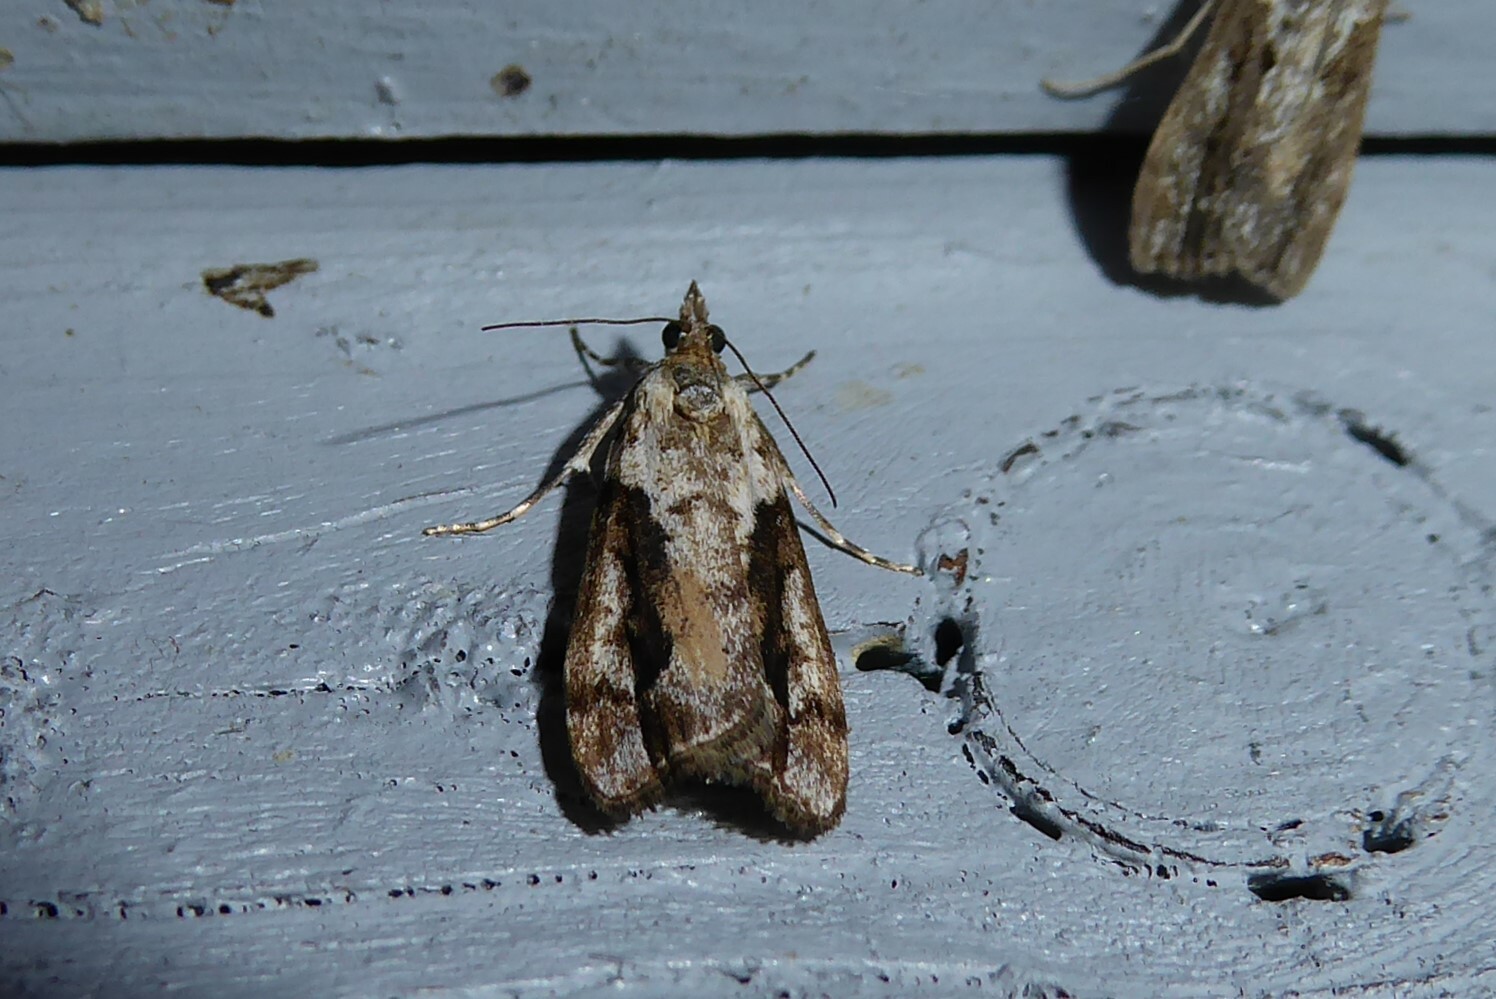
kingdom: Animalia
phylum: Arthropoda
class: Insecta
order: Lepidoptera
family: Crambidae
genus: Eudonia
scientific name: Eudonia submarginalis
